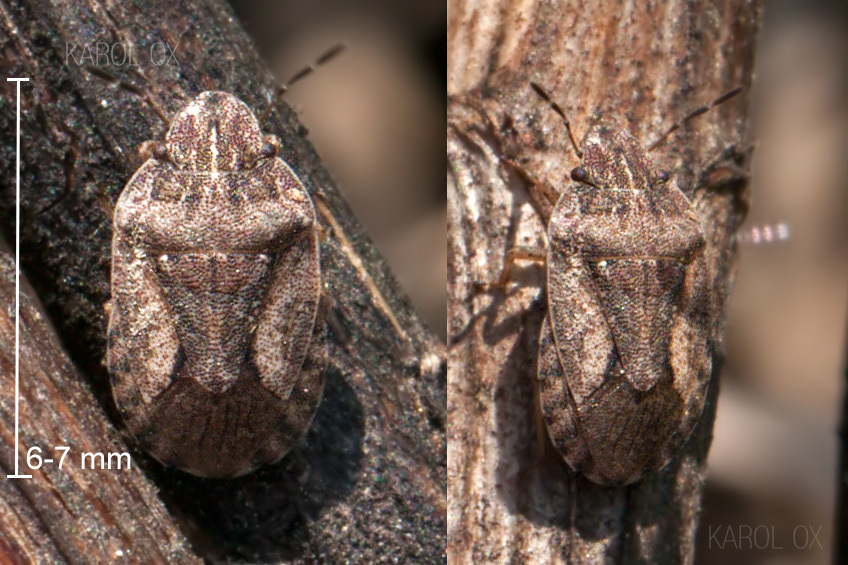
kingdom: Animalia
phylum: Arthropoda
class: Insecta
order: Hemiptera
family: Pentatomidae
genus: Holcostethus
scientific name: Holcostethus strictus
